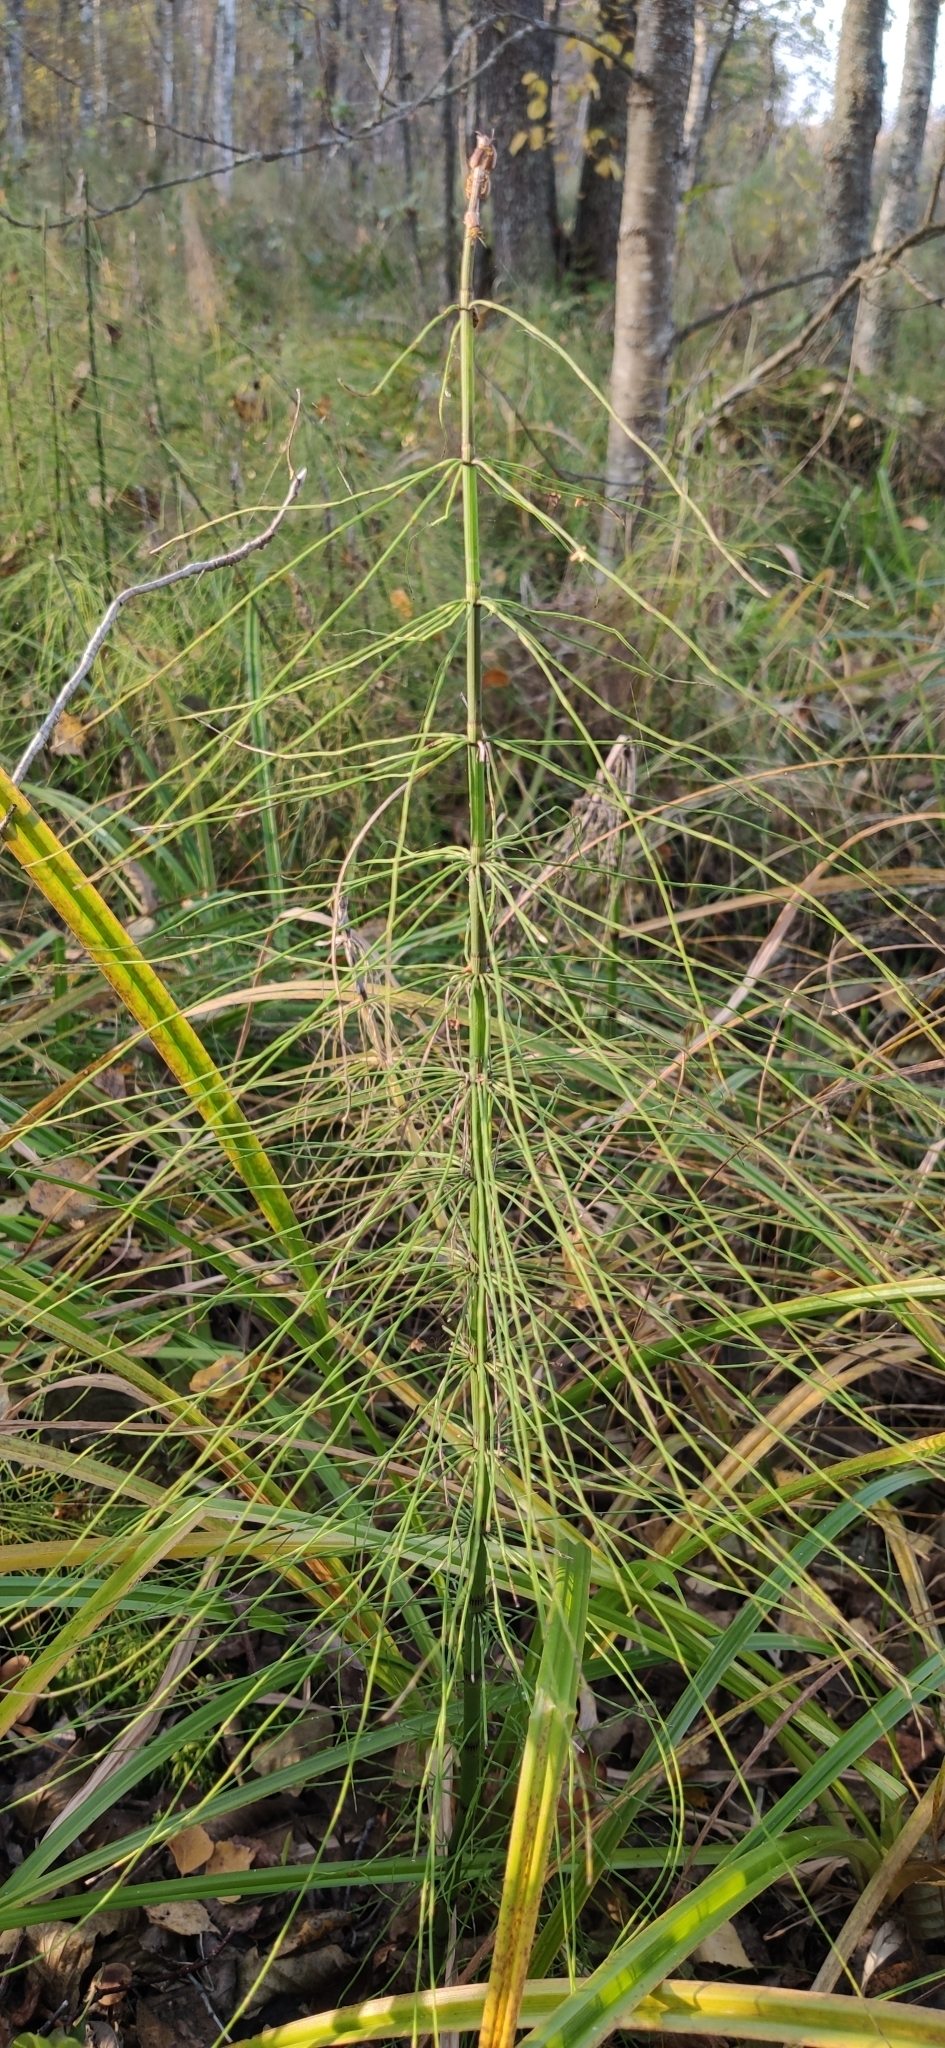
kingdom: Plantae
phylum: Tracheophyta
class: Polypodiopsida
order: Equisetales
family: Equisetaceae
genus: Equisetum
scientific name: Equisetum fluviatile
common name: Water horsetail
